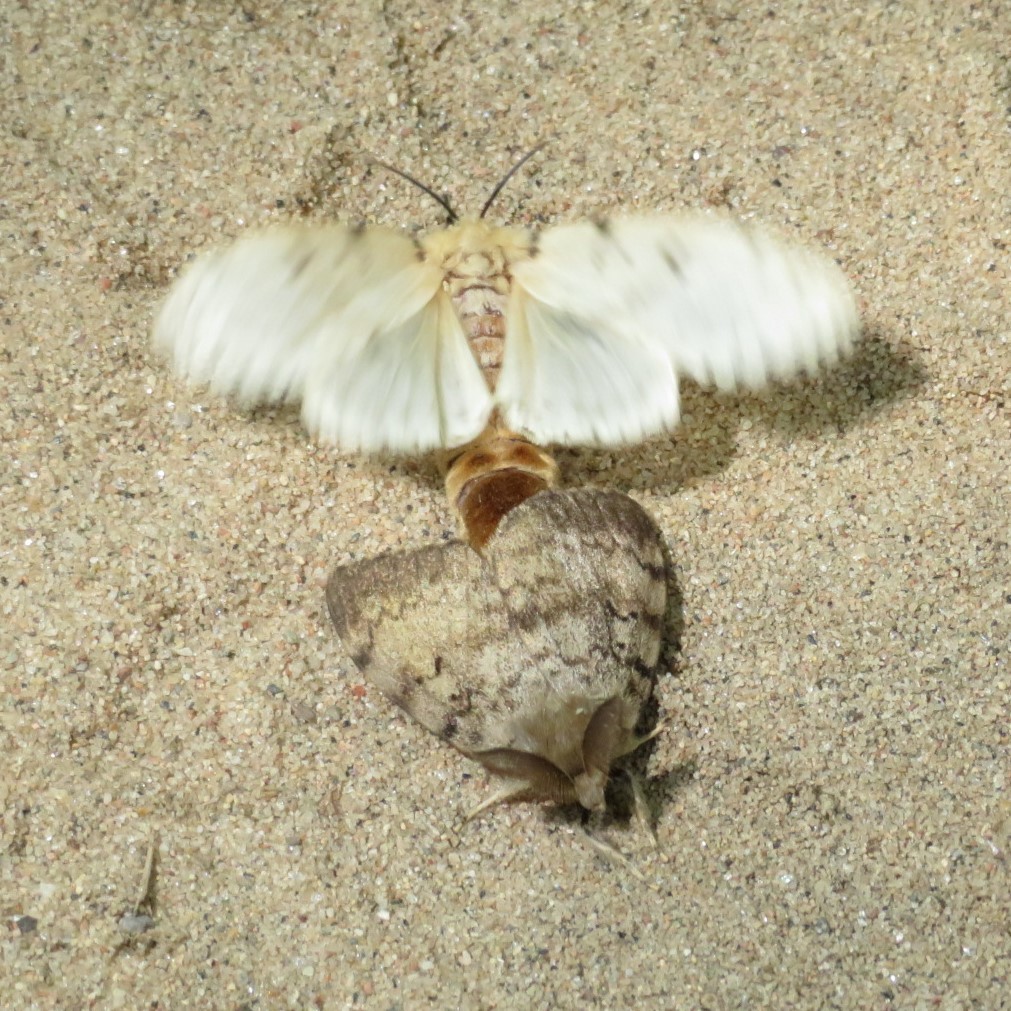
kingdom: Animalia
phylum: Arthropoda
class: Insecta
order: Lepidoptera
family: Erebidae
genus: Lymantria
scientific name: Lymantria dispar
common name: Gypsy moth
